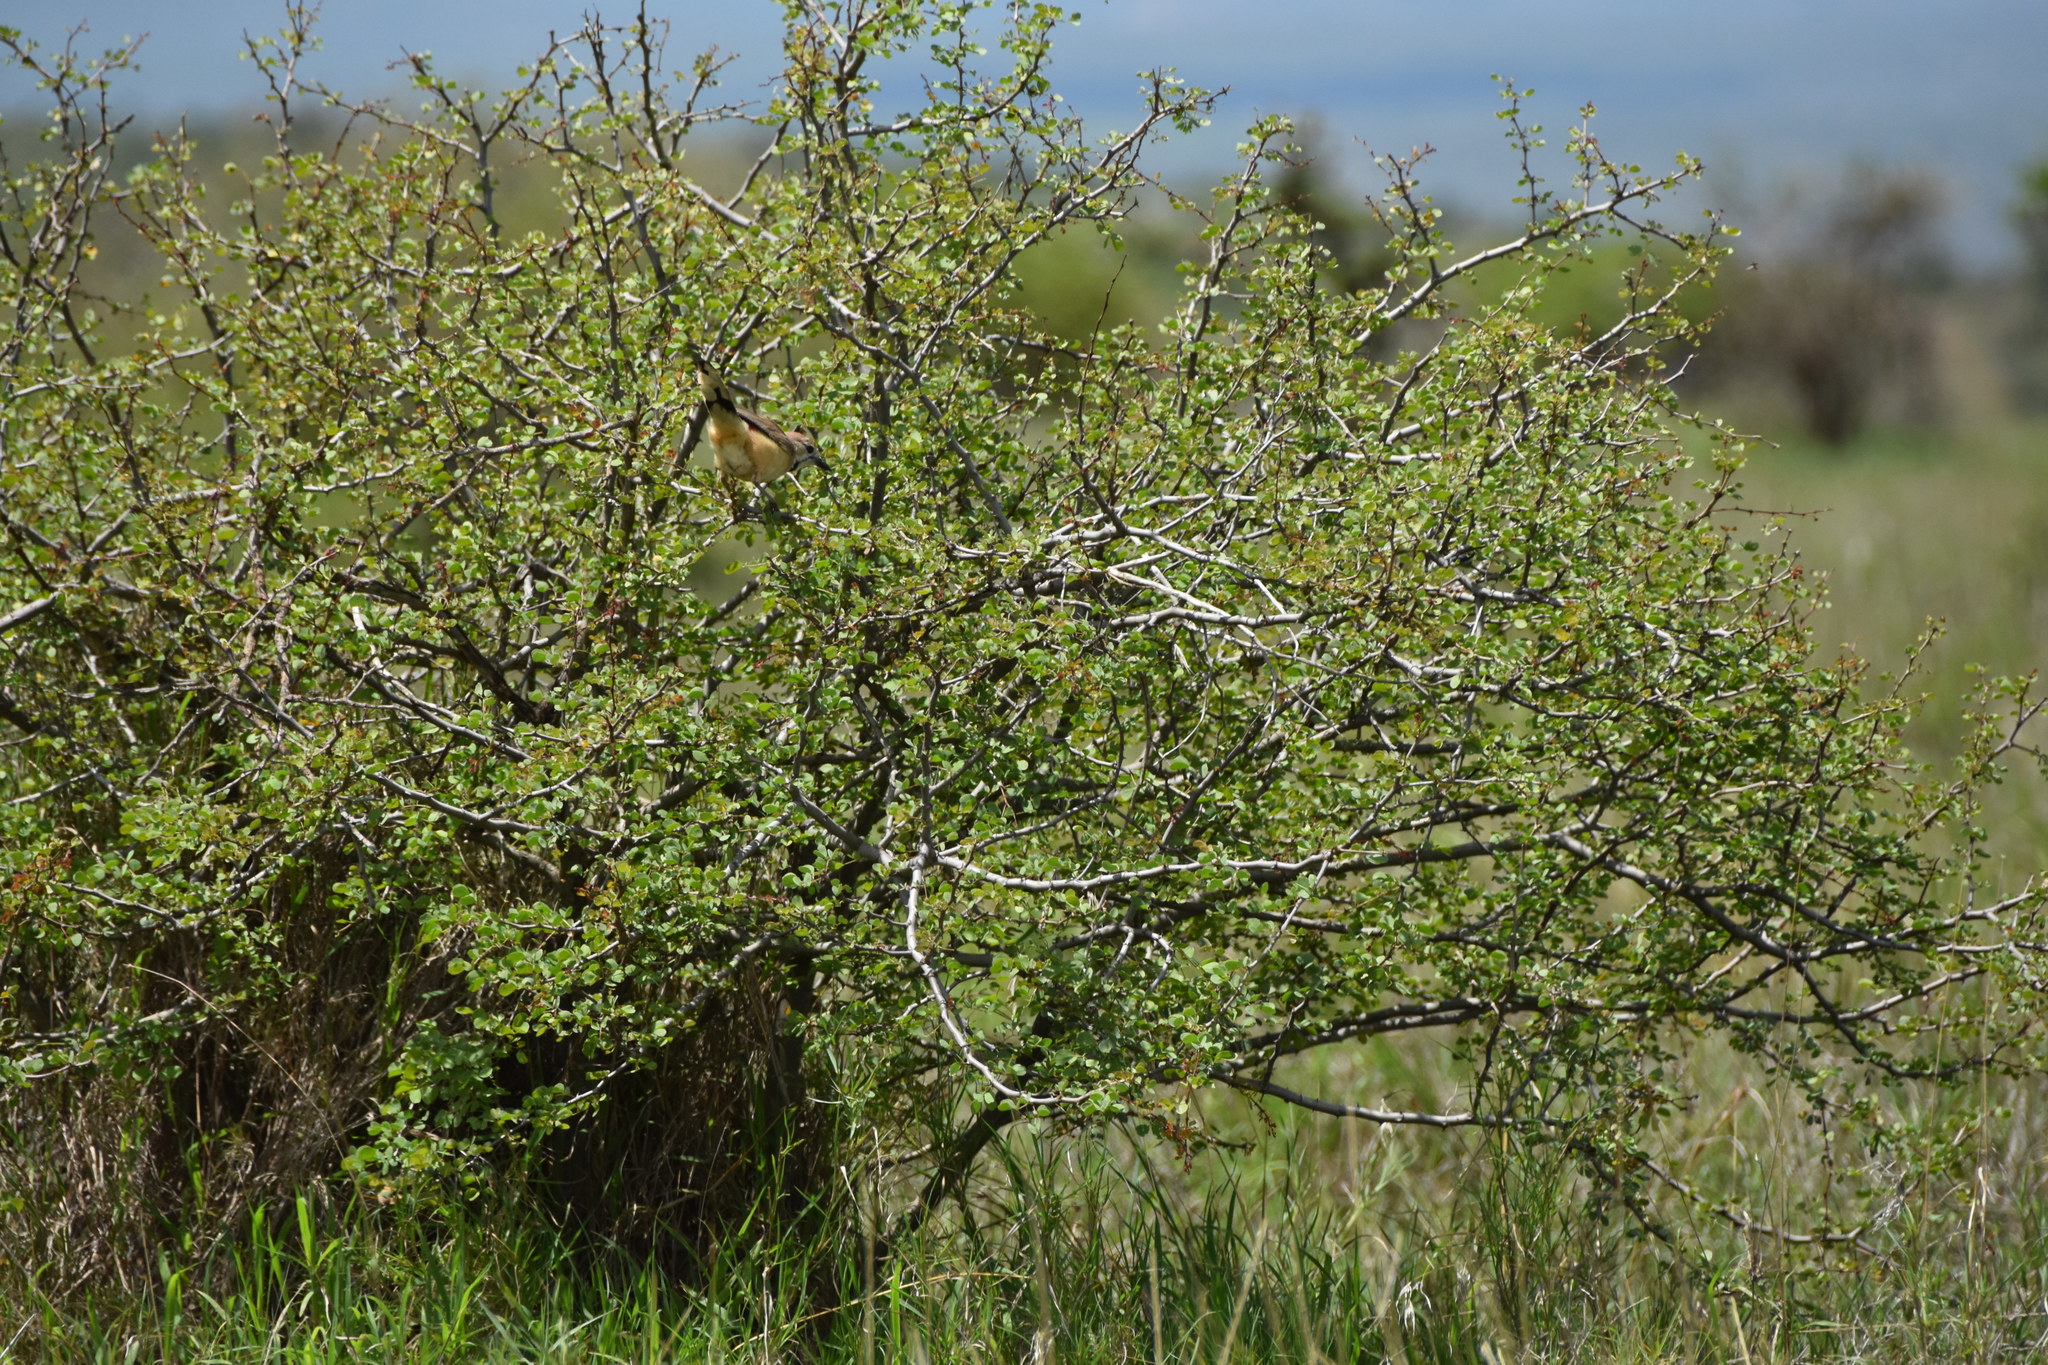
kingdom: Animalia
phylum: Chordata
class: Aves
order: Passeriformes
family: Malaconotidae
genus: Telophorus
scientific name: Telophorus cruentus
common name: Rosy-patched bushshrike
